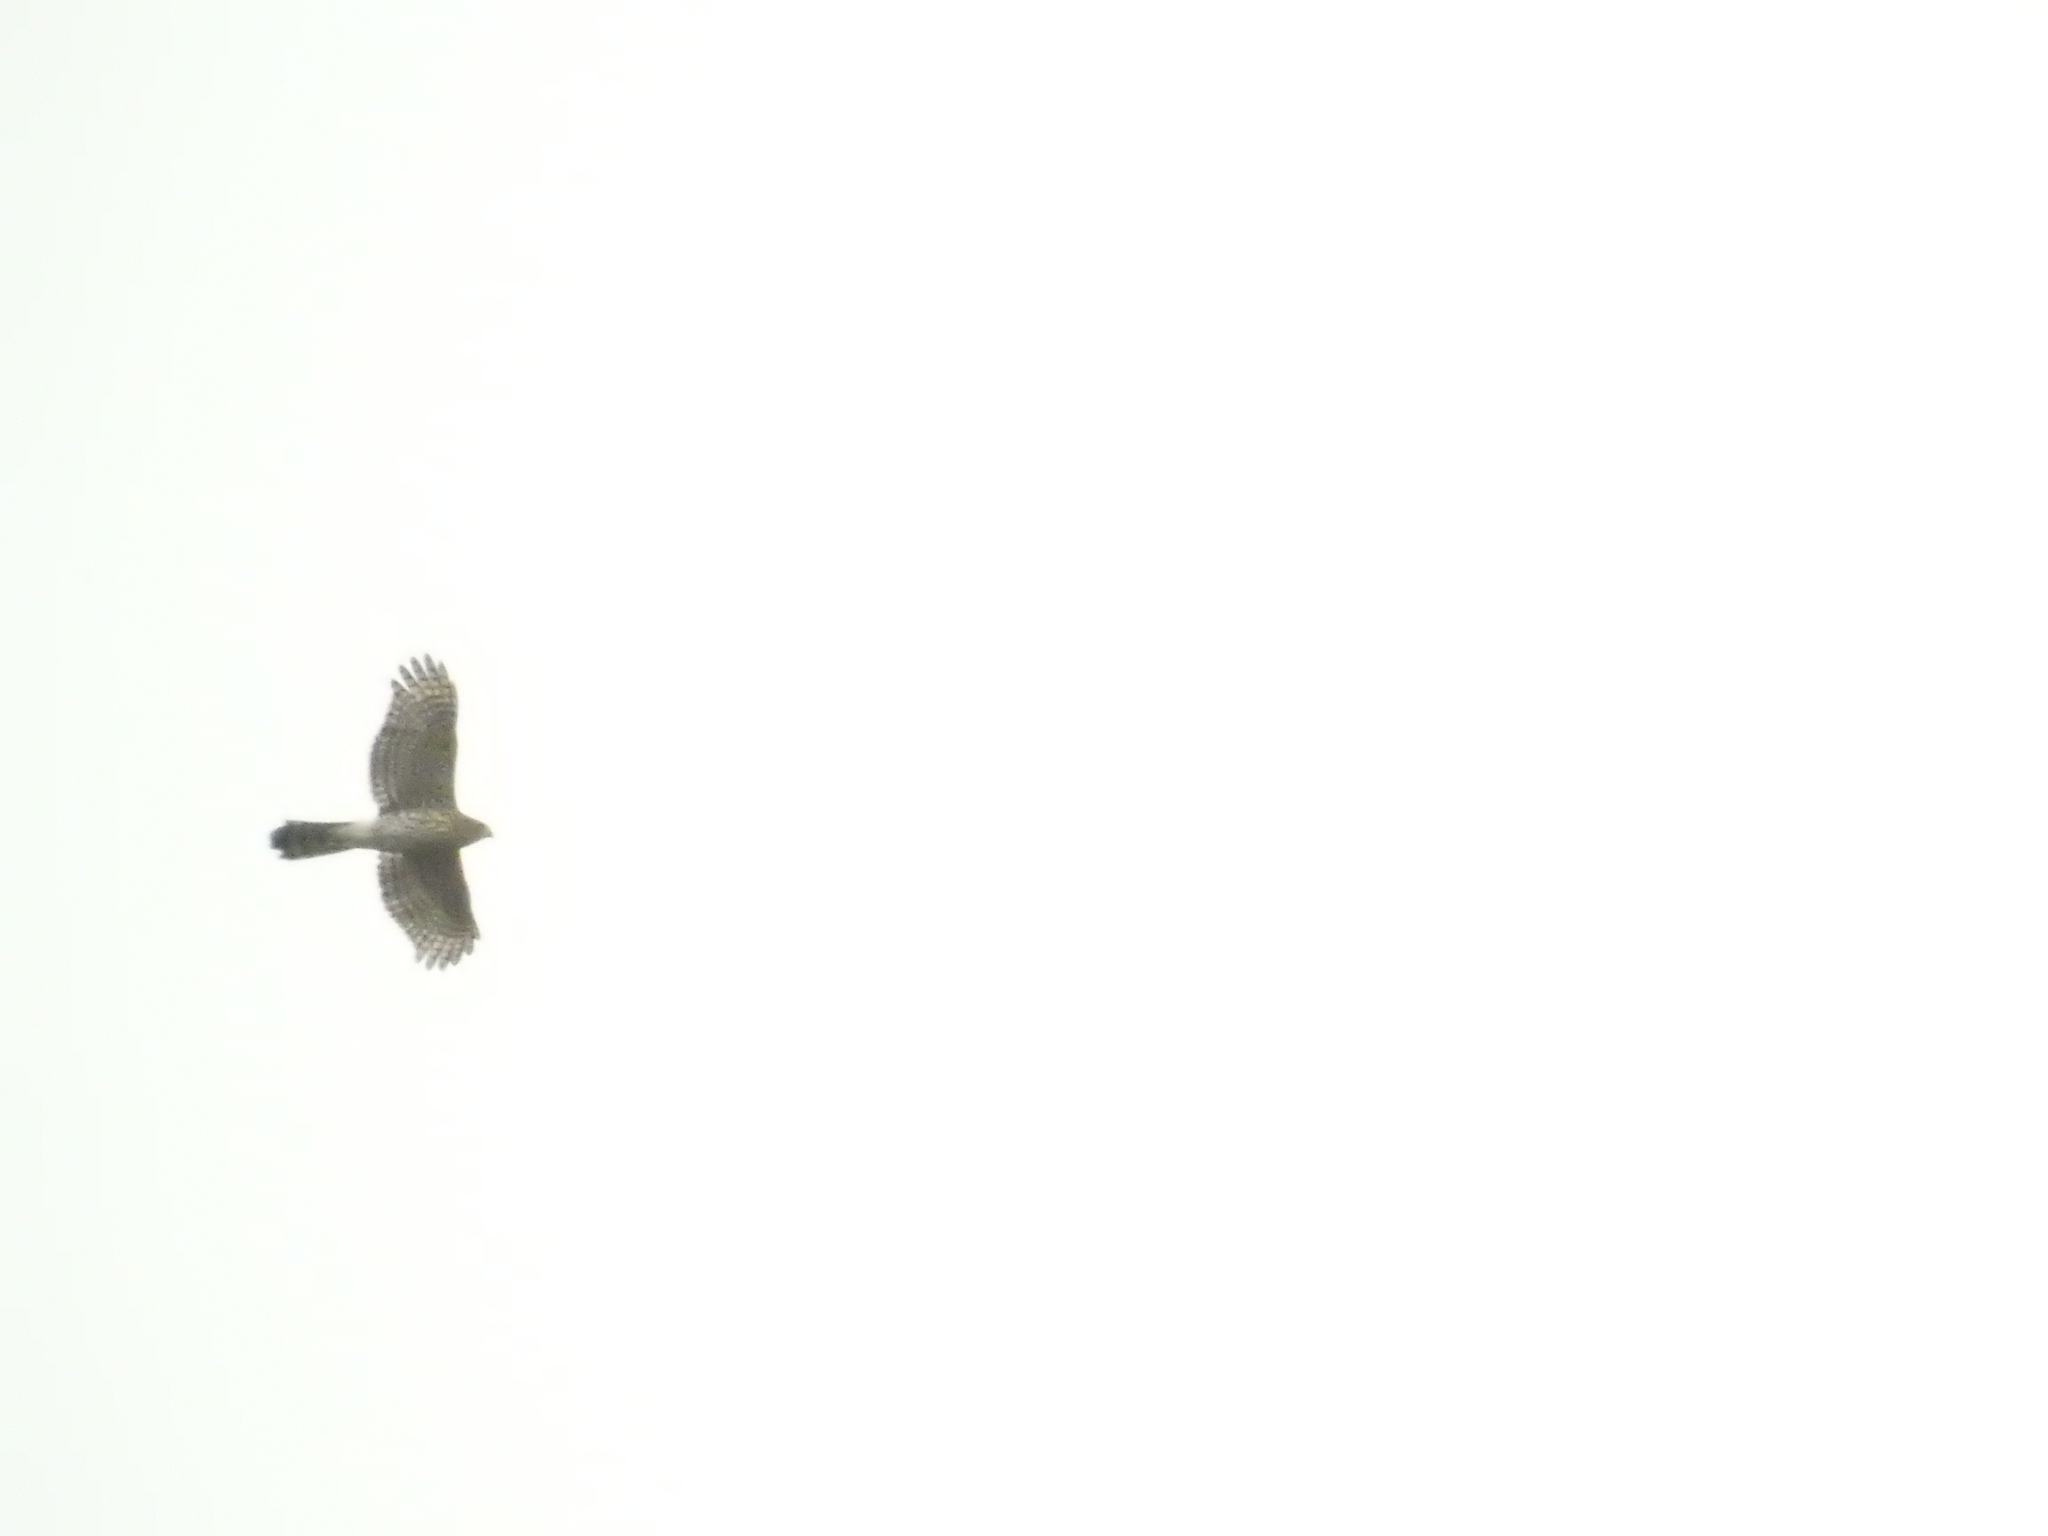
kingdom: Animalia
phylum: Chordata
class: Aves
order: Accipitriformes
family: Accipitridae
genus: Accipiter
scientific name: Accipiter cooperii
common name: Cooper's hawk
